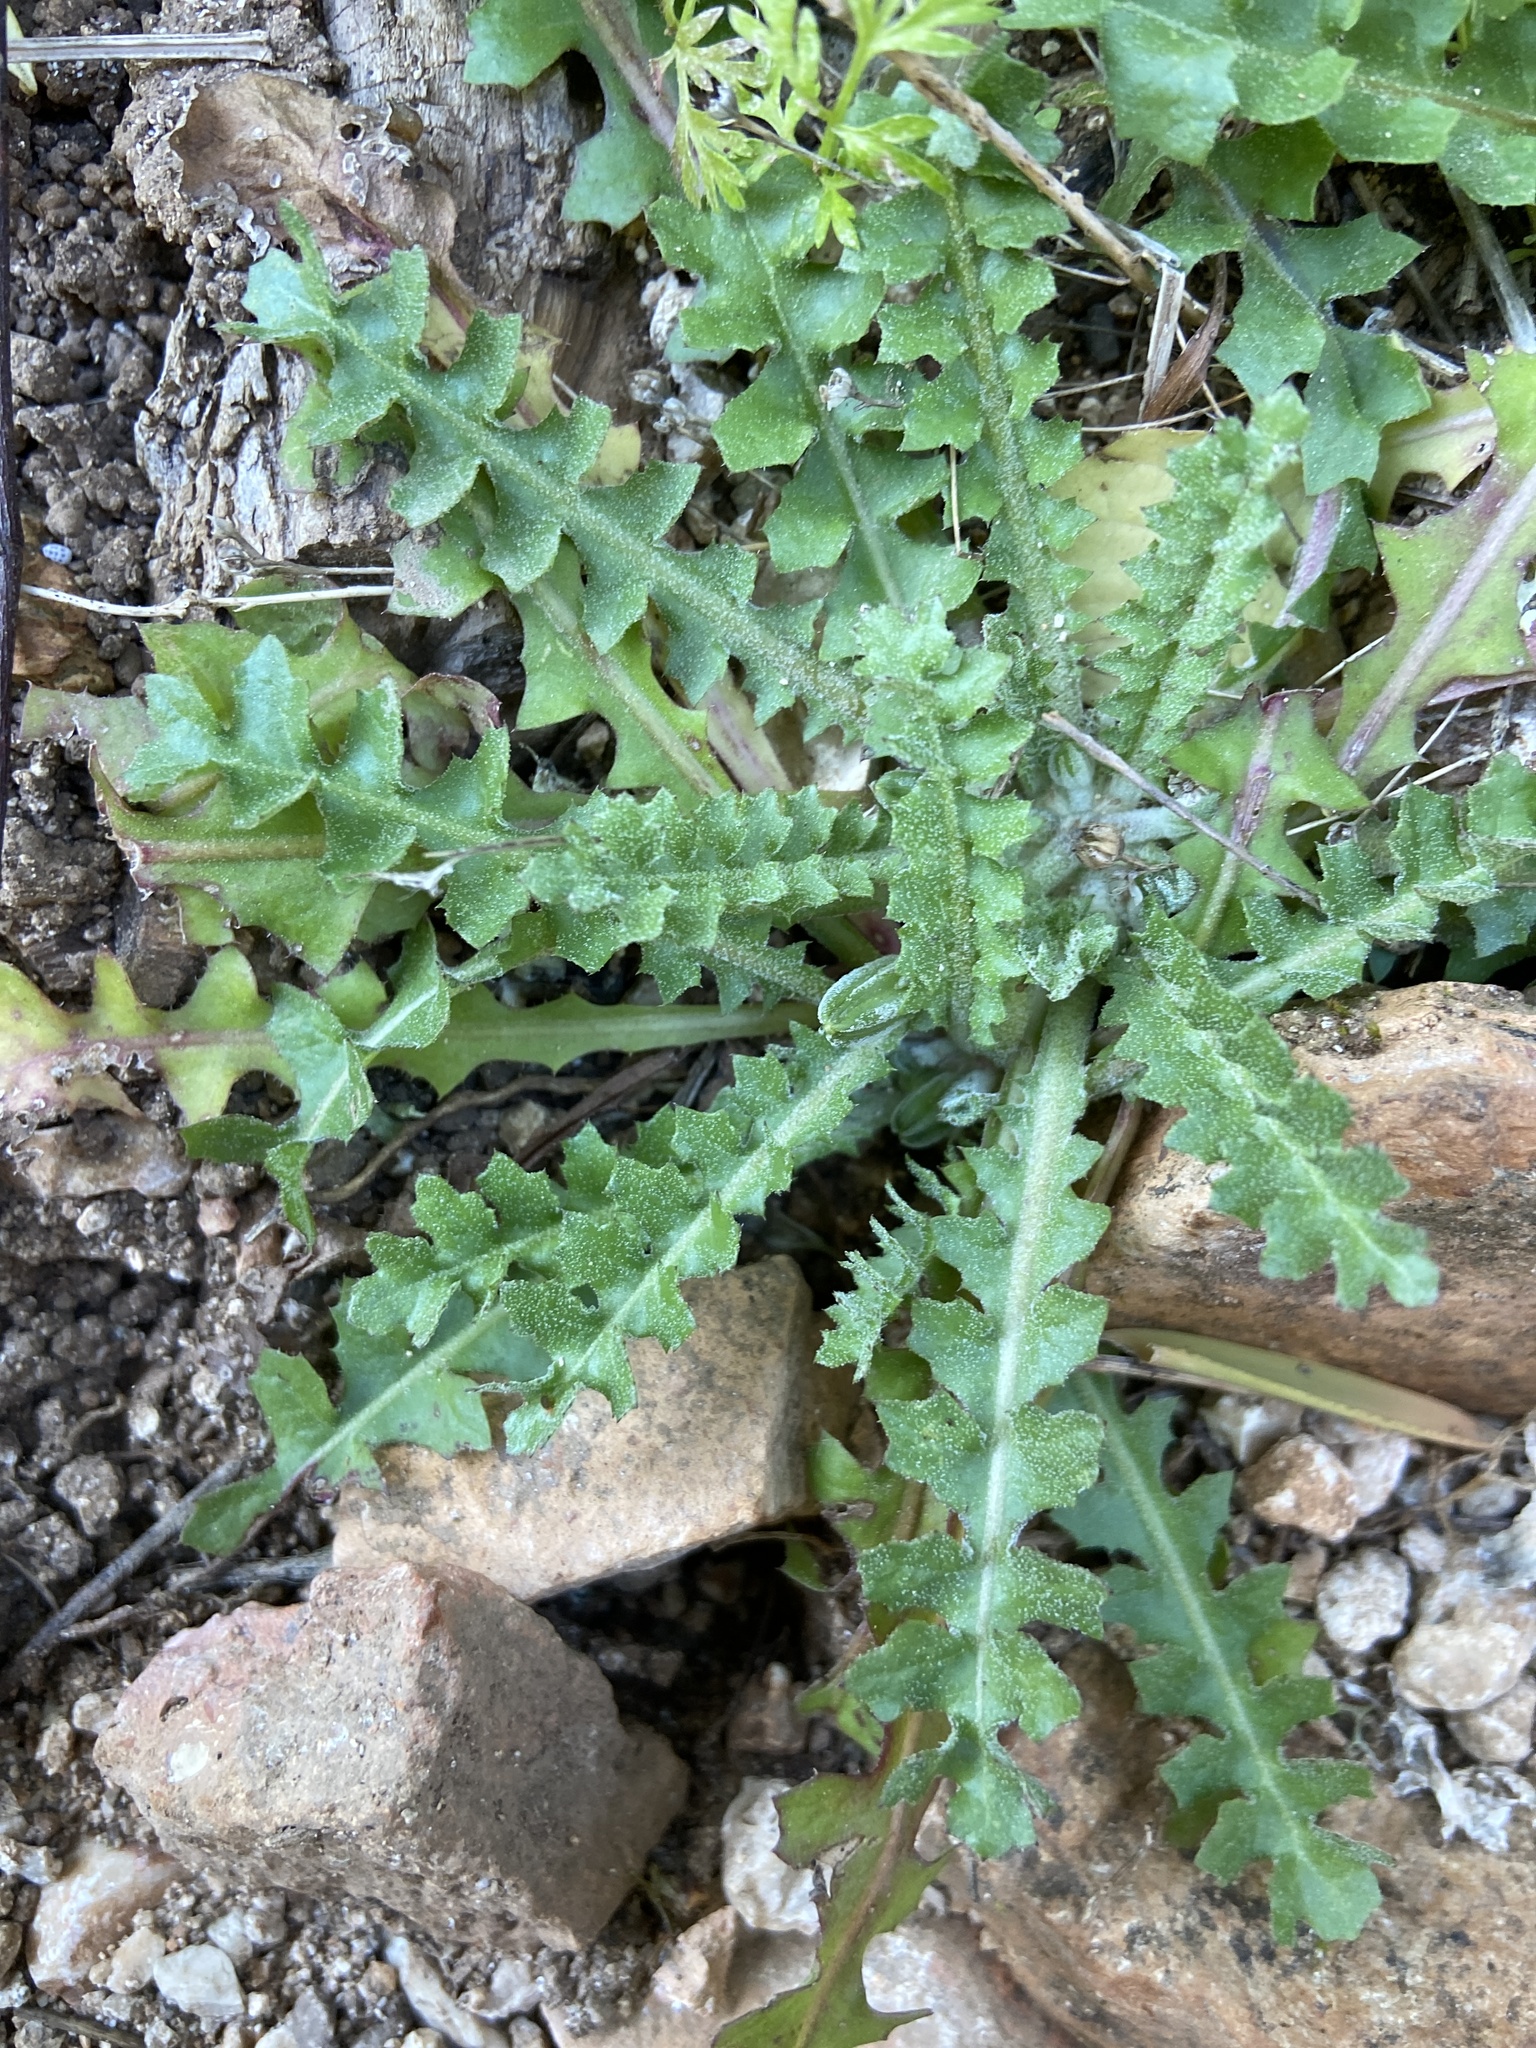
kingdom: Plantae
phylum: Tracheophyta
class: Magnoliopsida
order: Asterales
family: Asteraceae
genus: Hyoseris
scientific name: Hyoseris radiata
